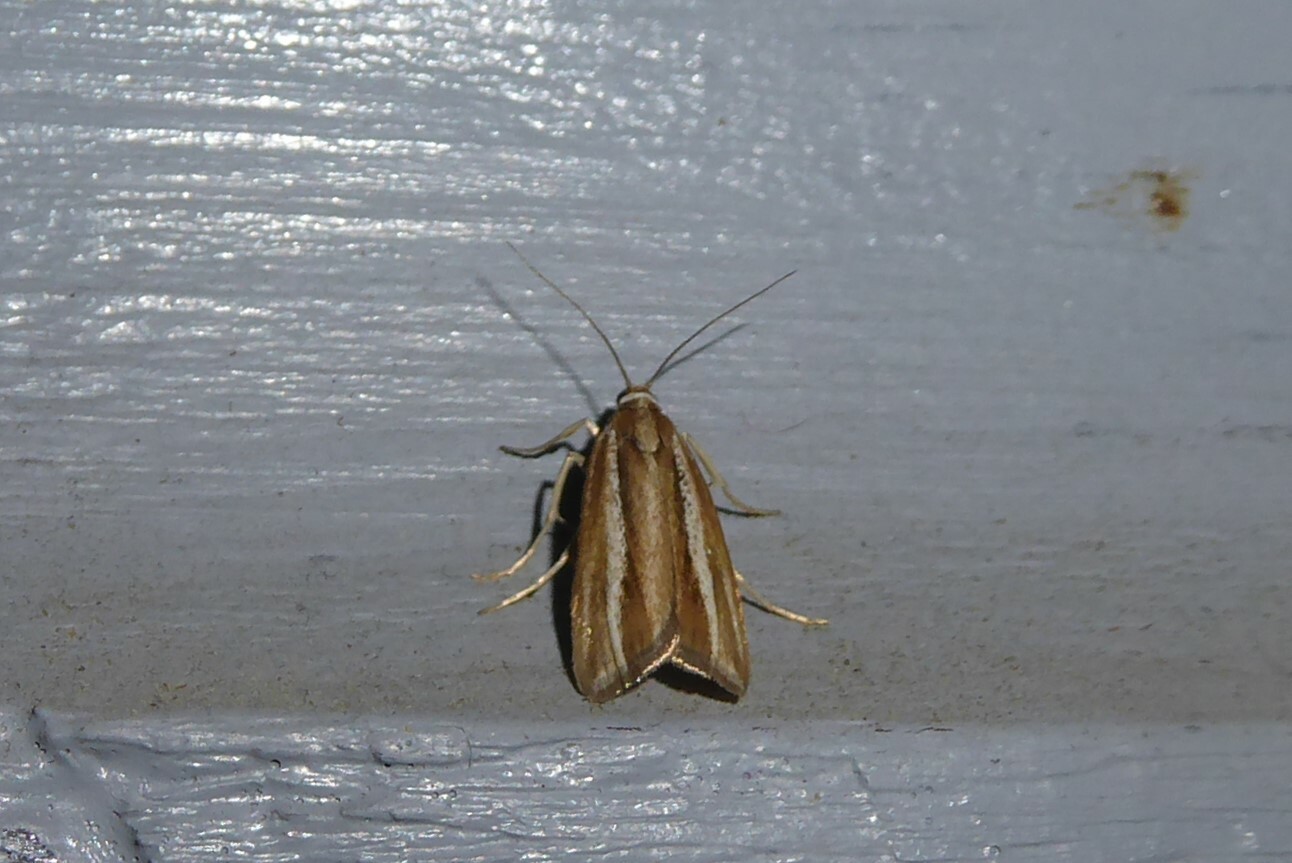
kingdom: Animalia
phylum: Arthropoda
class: Insecta
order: Lepidoptera
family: Crambidae
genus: Orocrambus
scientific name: Orocrambus melitastes
